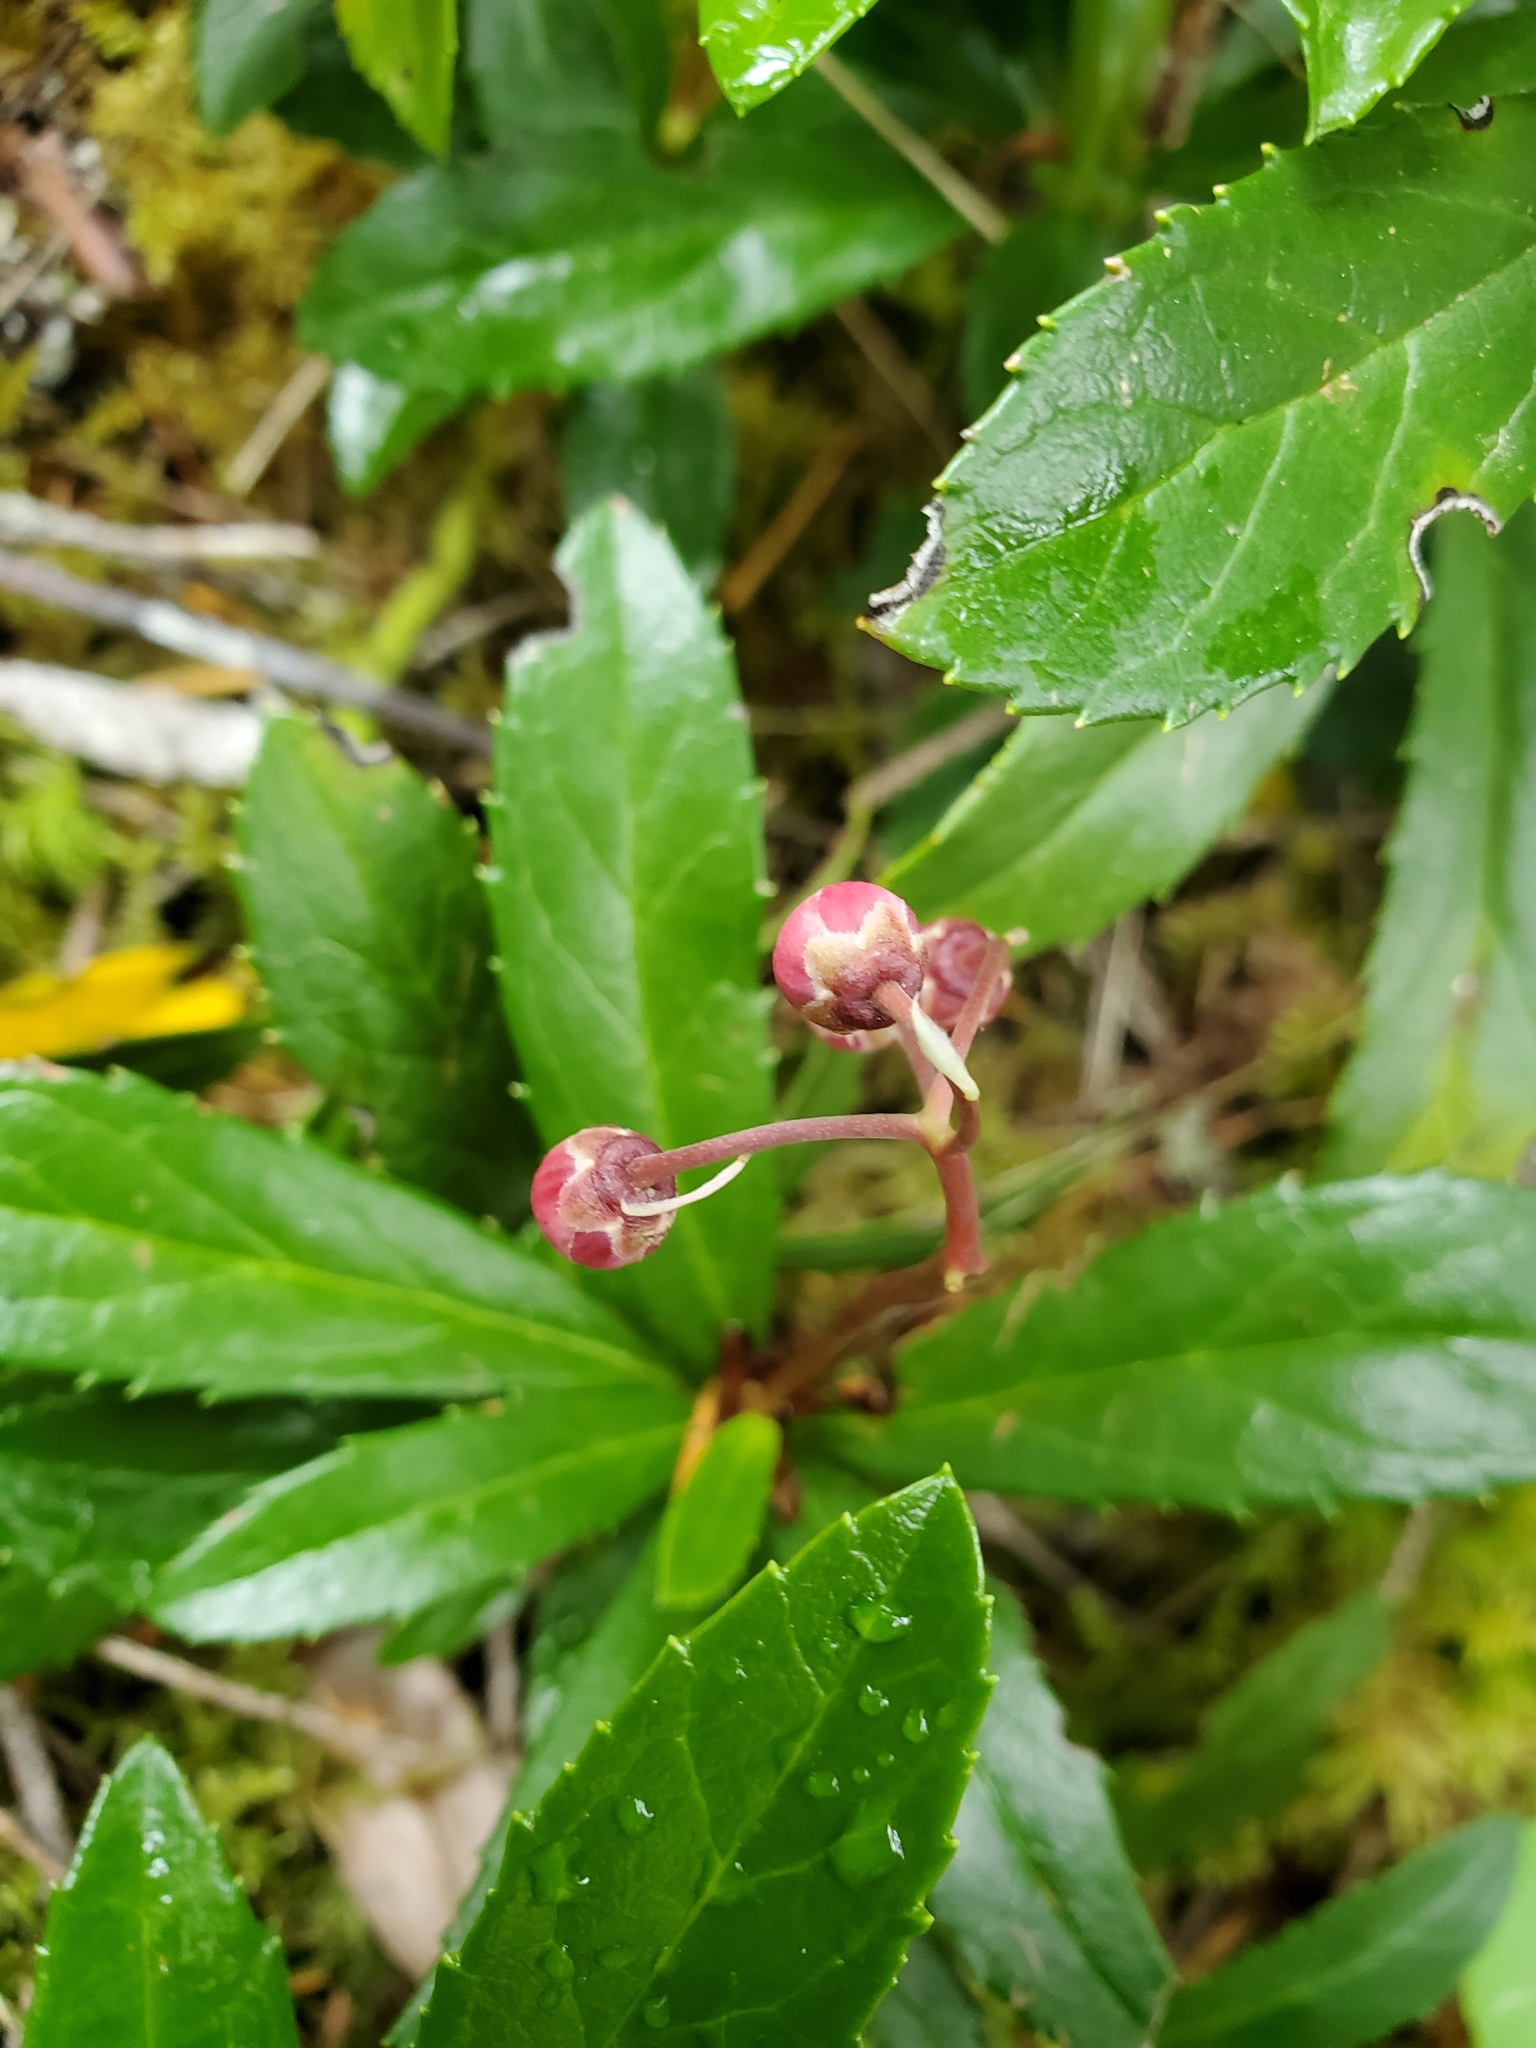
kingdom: Plantae
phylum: Tracheophyta
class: Magnoliopsida
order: Ericales
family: Ericaceae
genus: Chimaphila
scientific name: Chimaphila umbellata
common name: Pipsissewa
